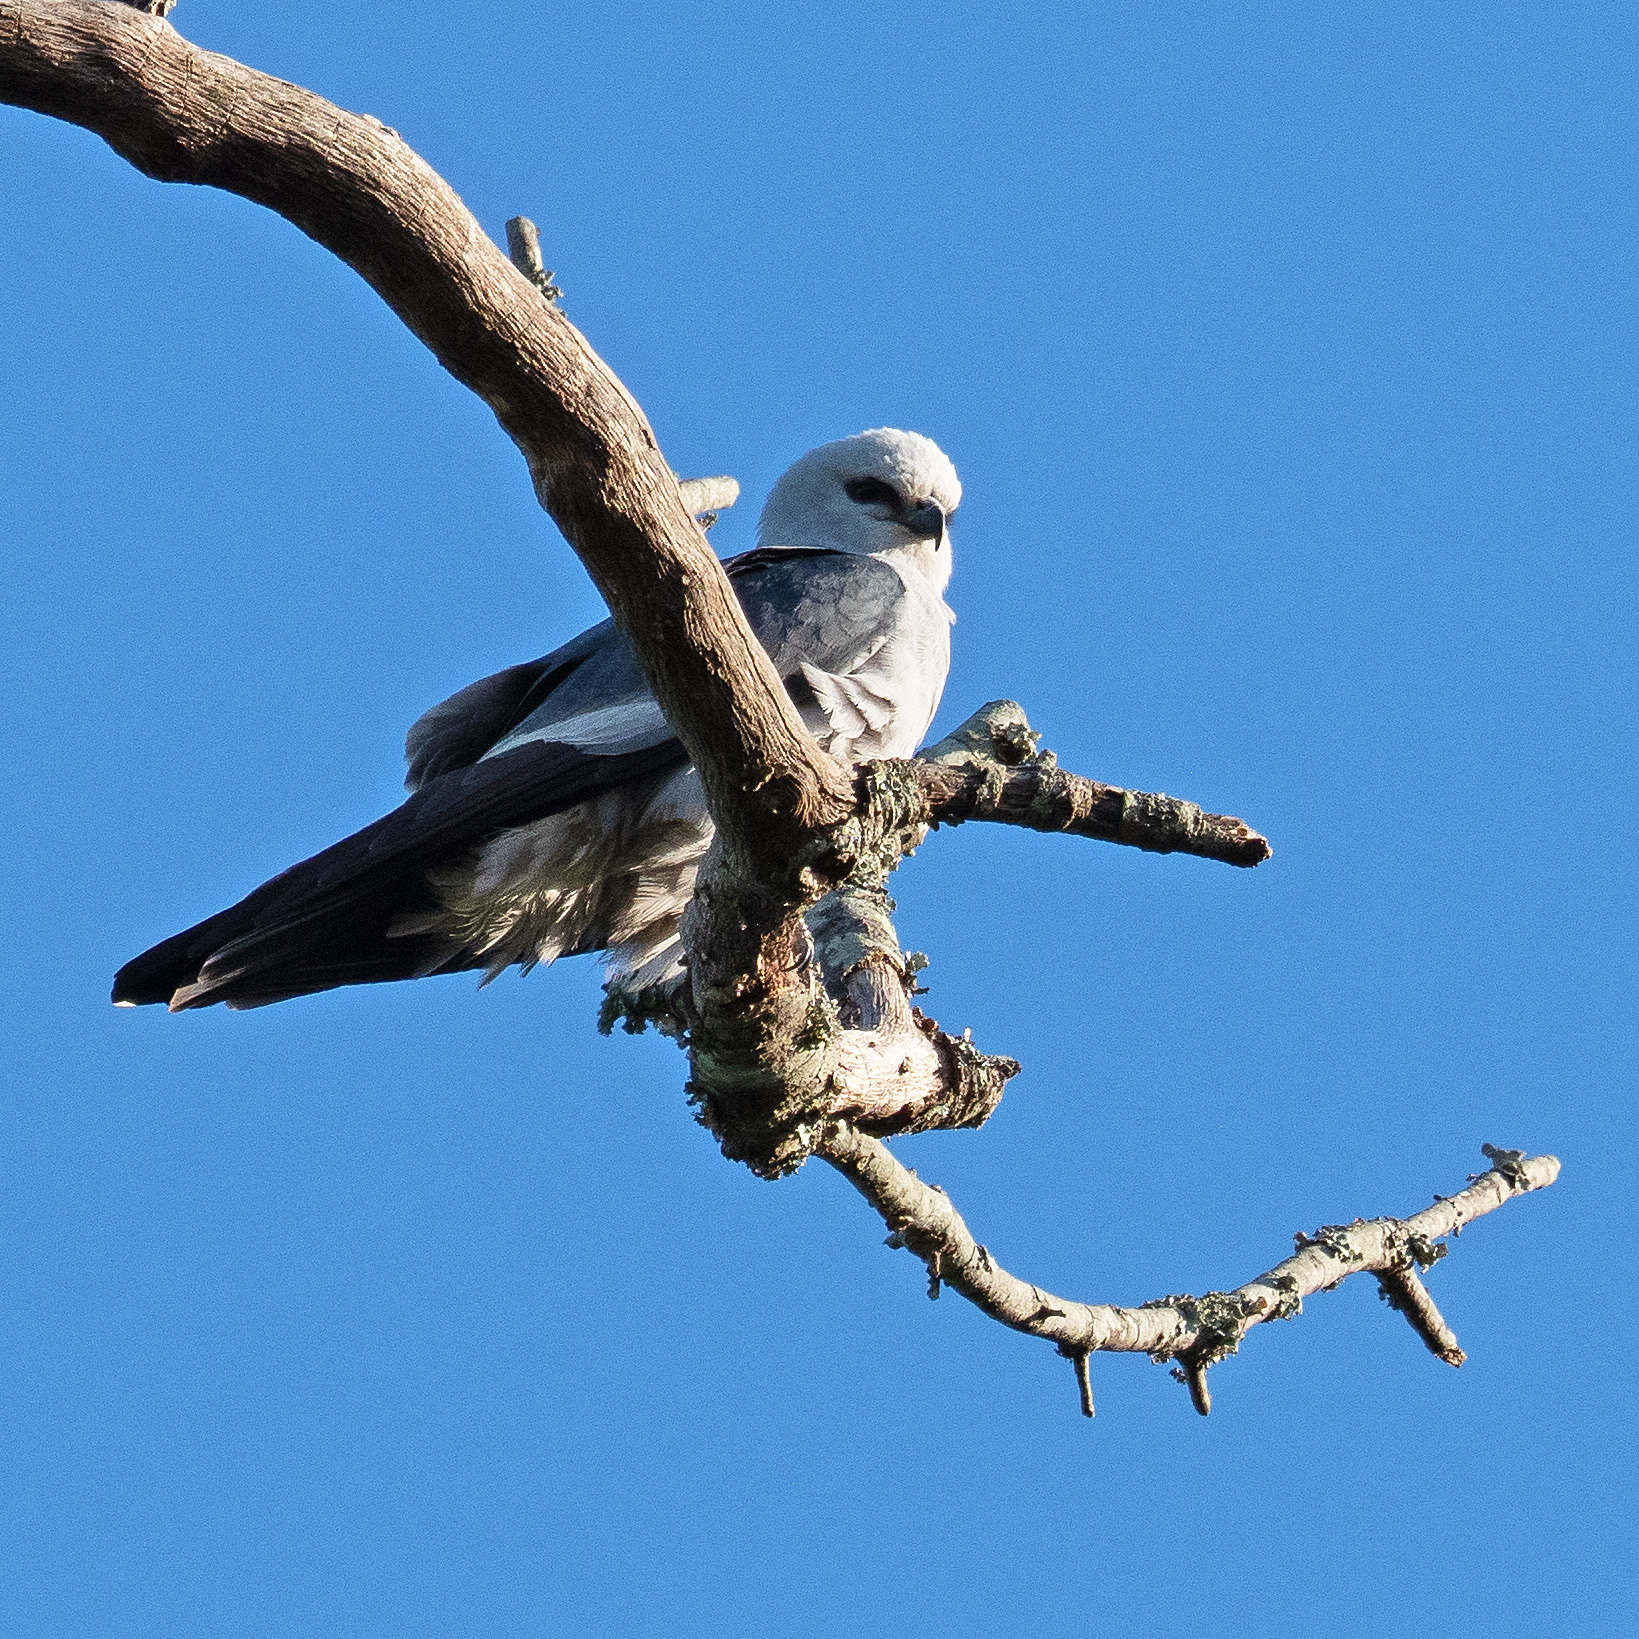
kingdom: Animalia
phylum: Chordata
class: Aves
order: Accipitriformes
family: Accipitridae
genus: Ictinia
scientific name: Ictinia mississippiensis
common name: Mississippi kite
